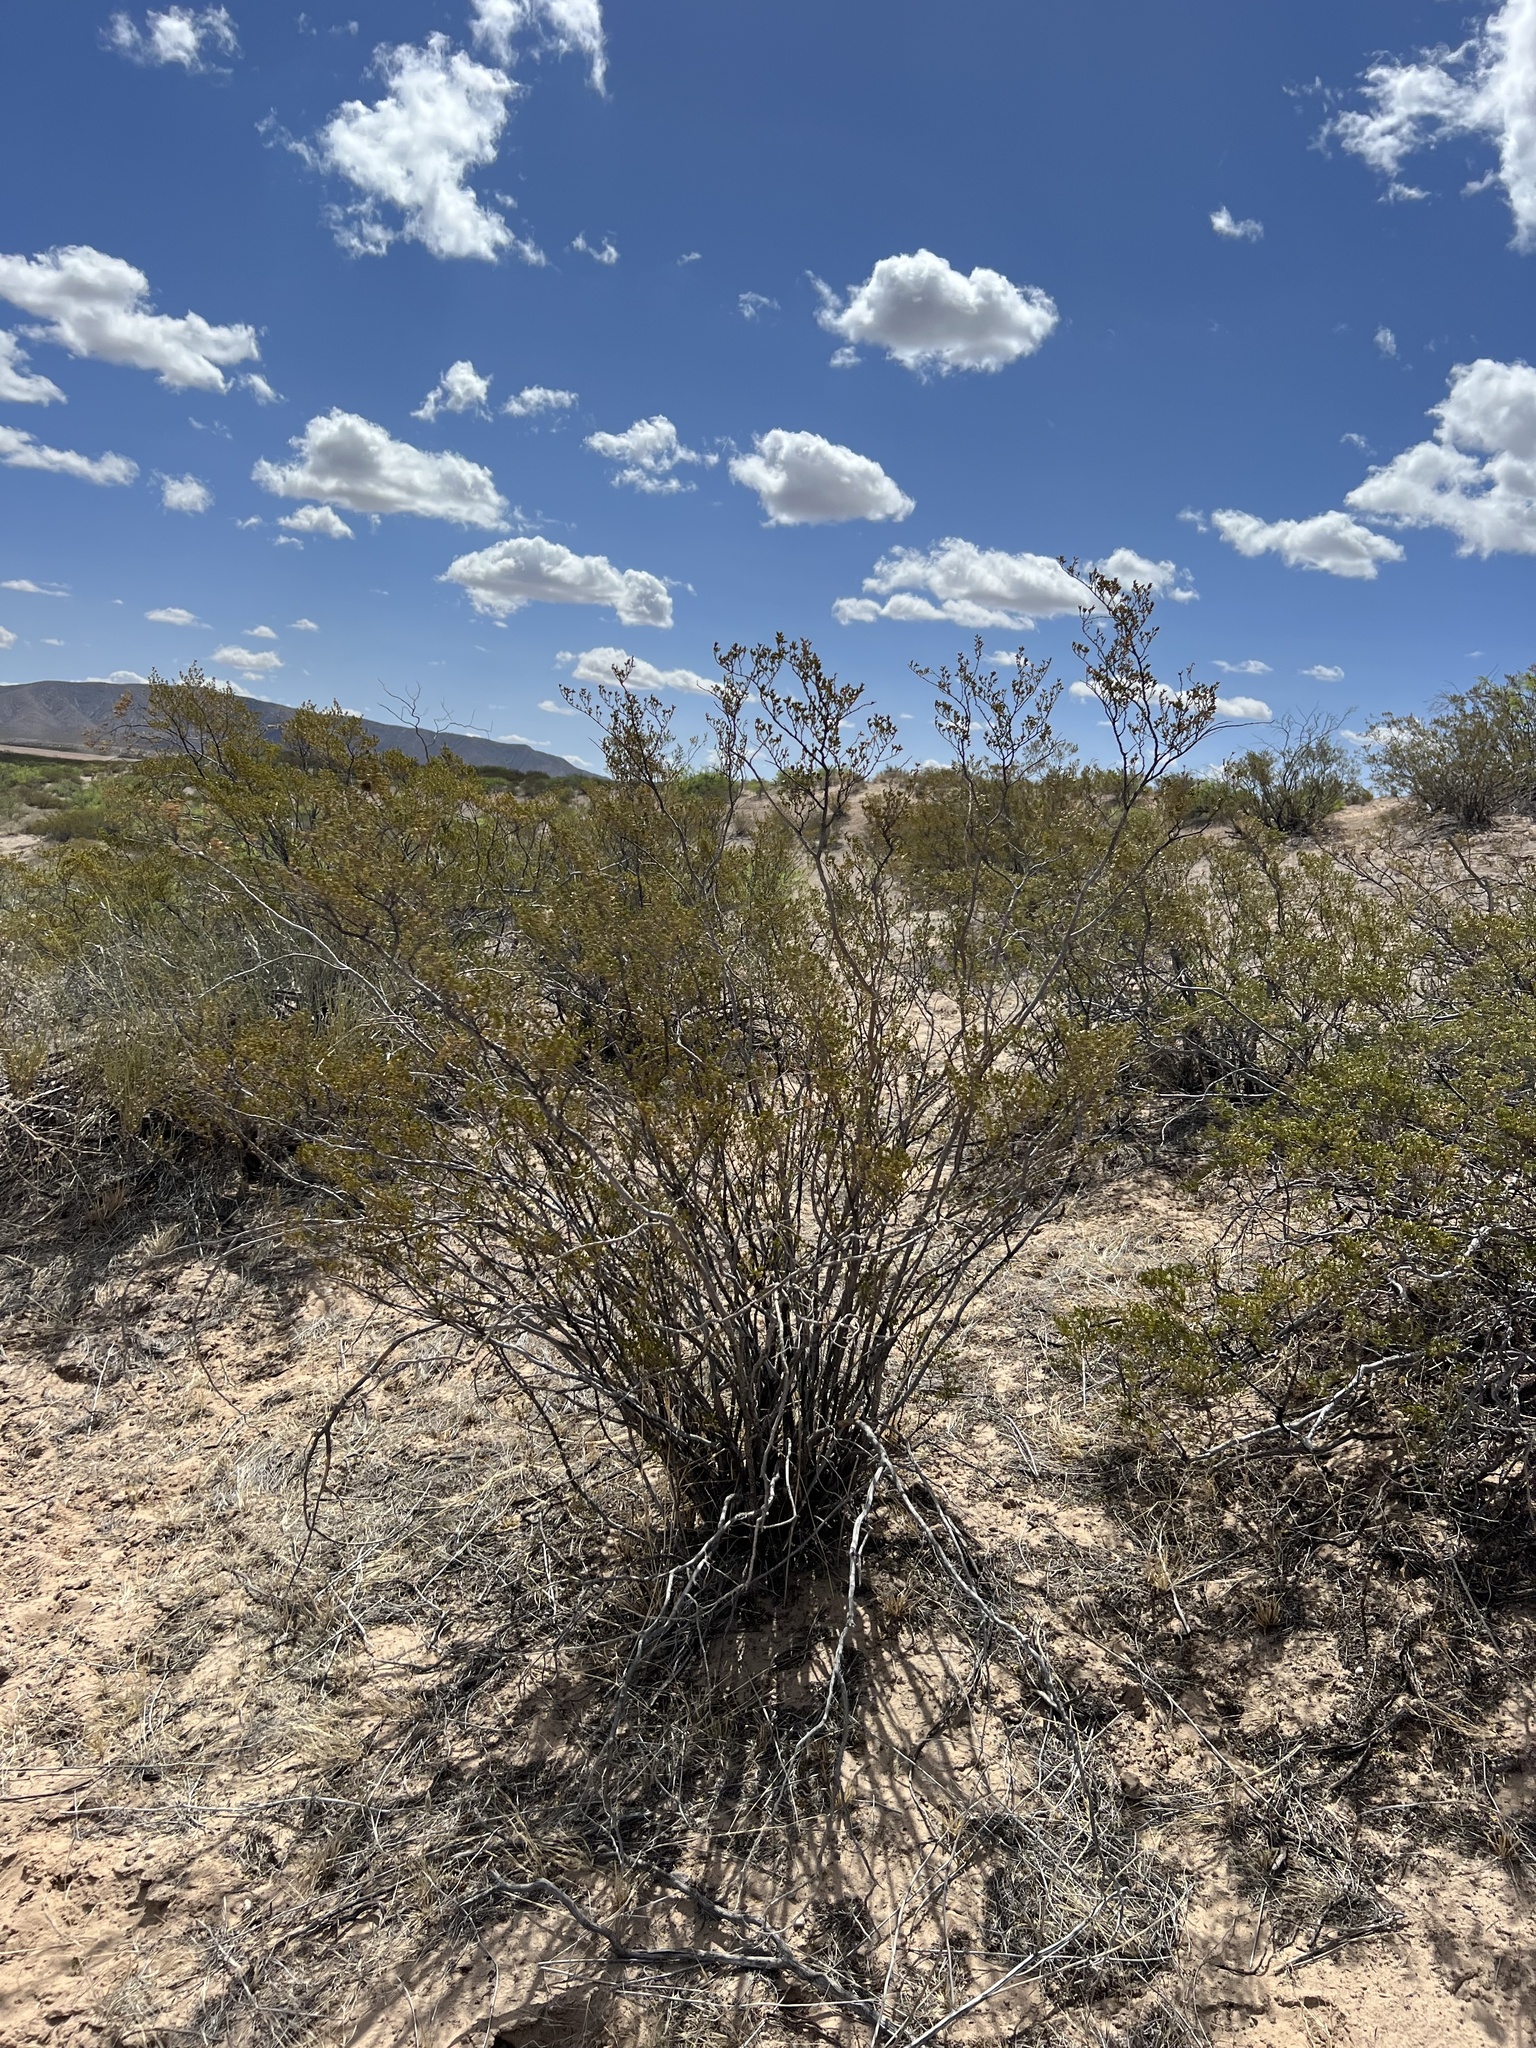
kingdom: Plantae
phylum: Tracheophyta
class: Magnoliopsida
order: Zygophyllales
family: Zygophyllaceae
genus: Larrea
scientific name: Larrea tridentata
